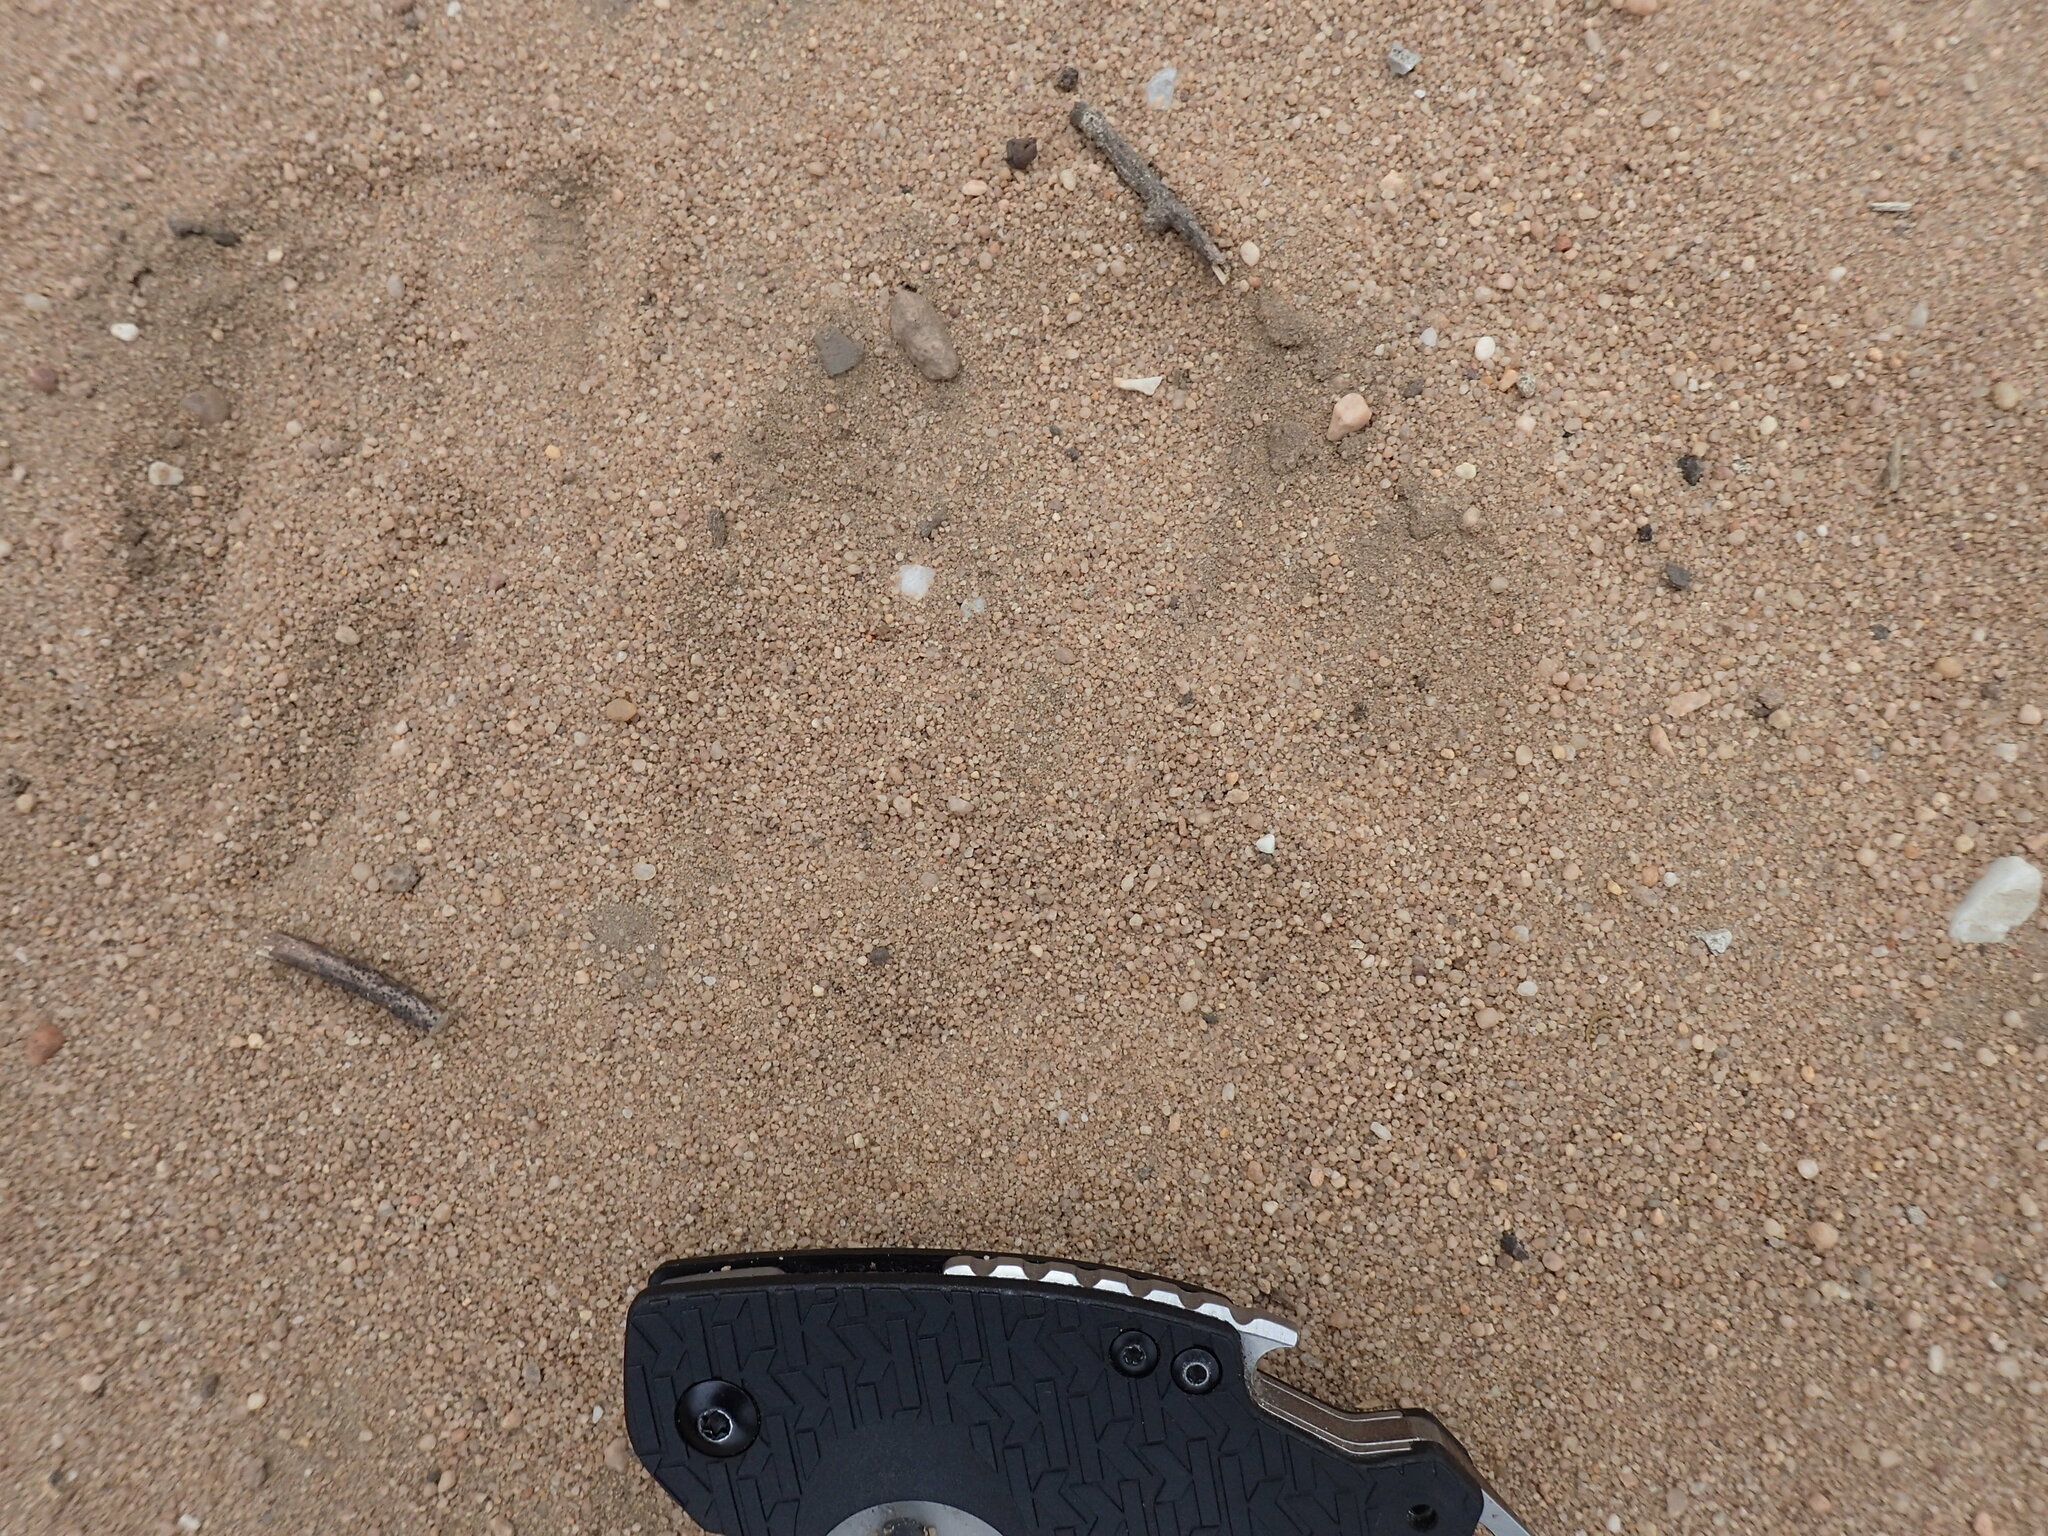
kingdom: Animalia
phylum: Chordata
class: Mammalia
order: Carnivora
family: Felidae
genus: Panthera
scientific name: Panthera pardus
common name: Leopard
